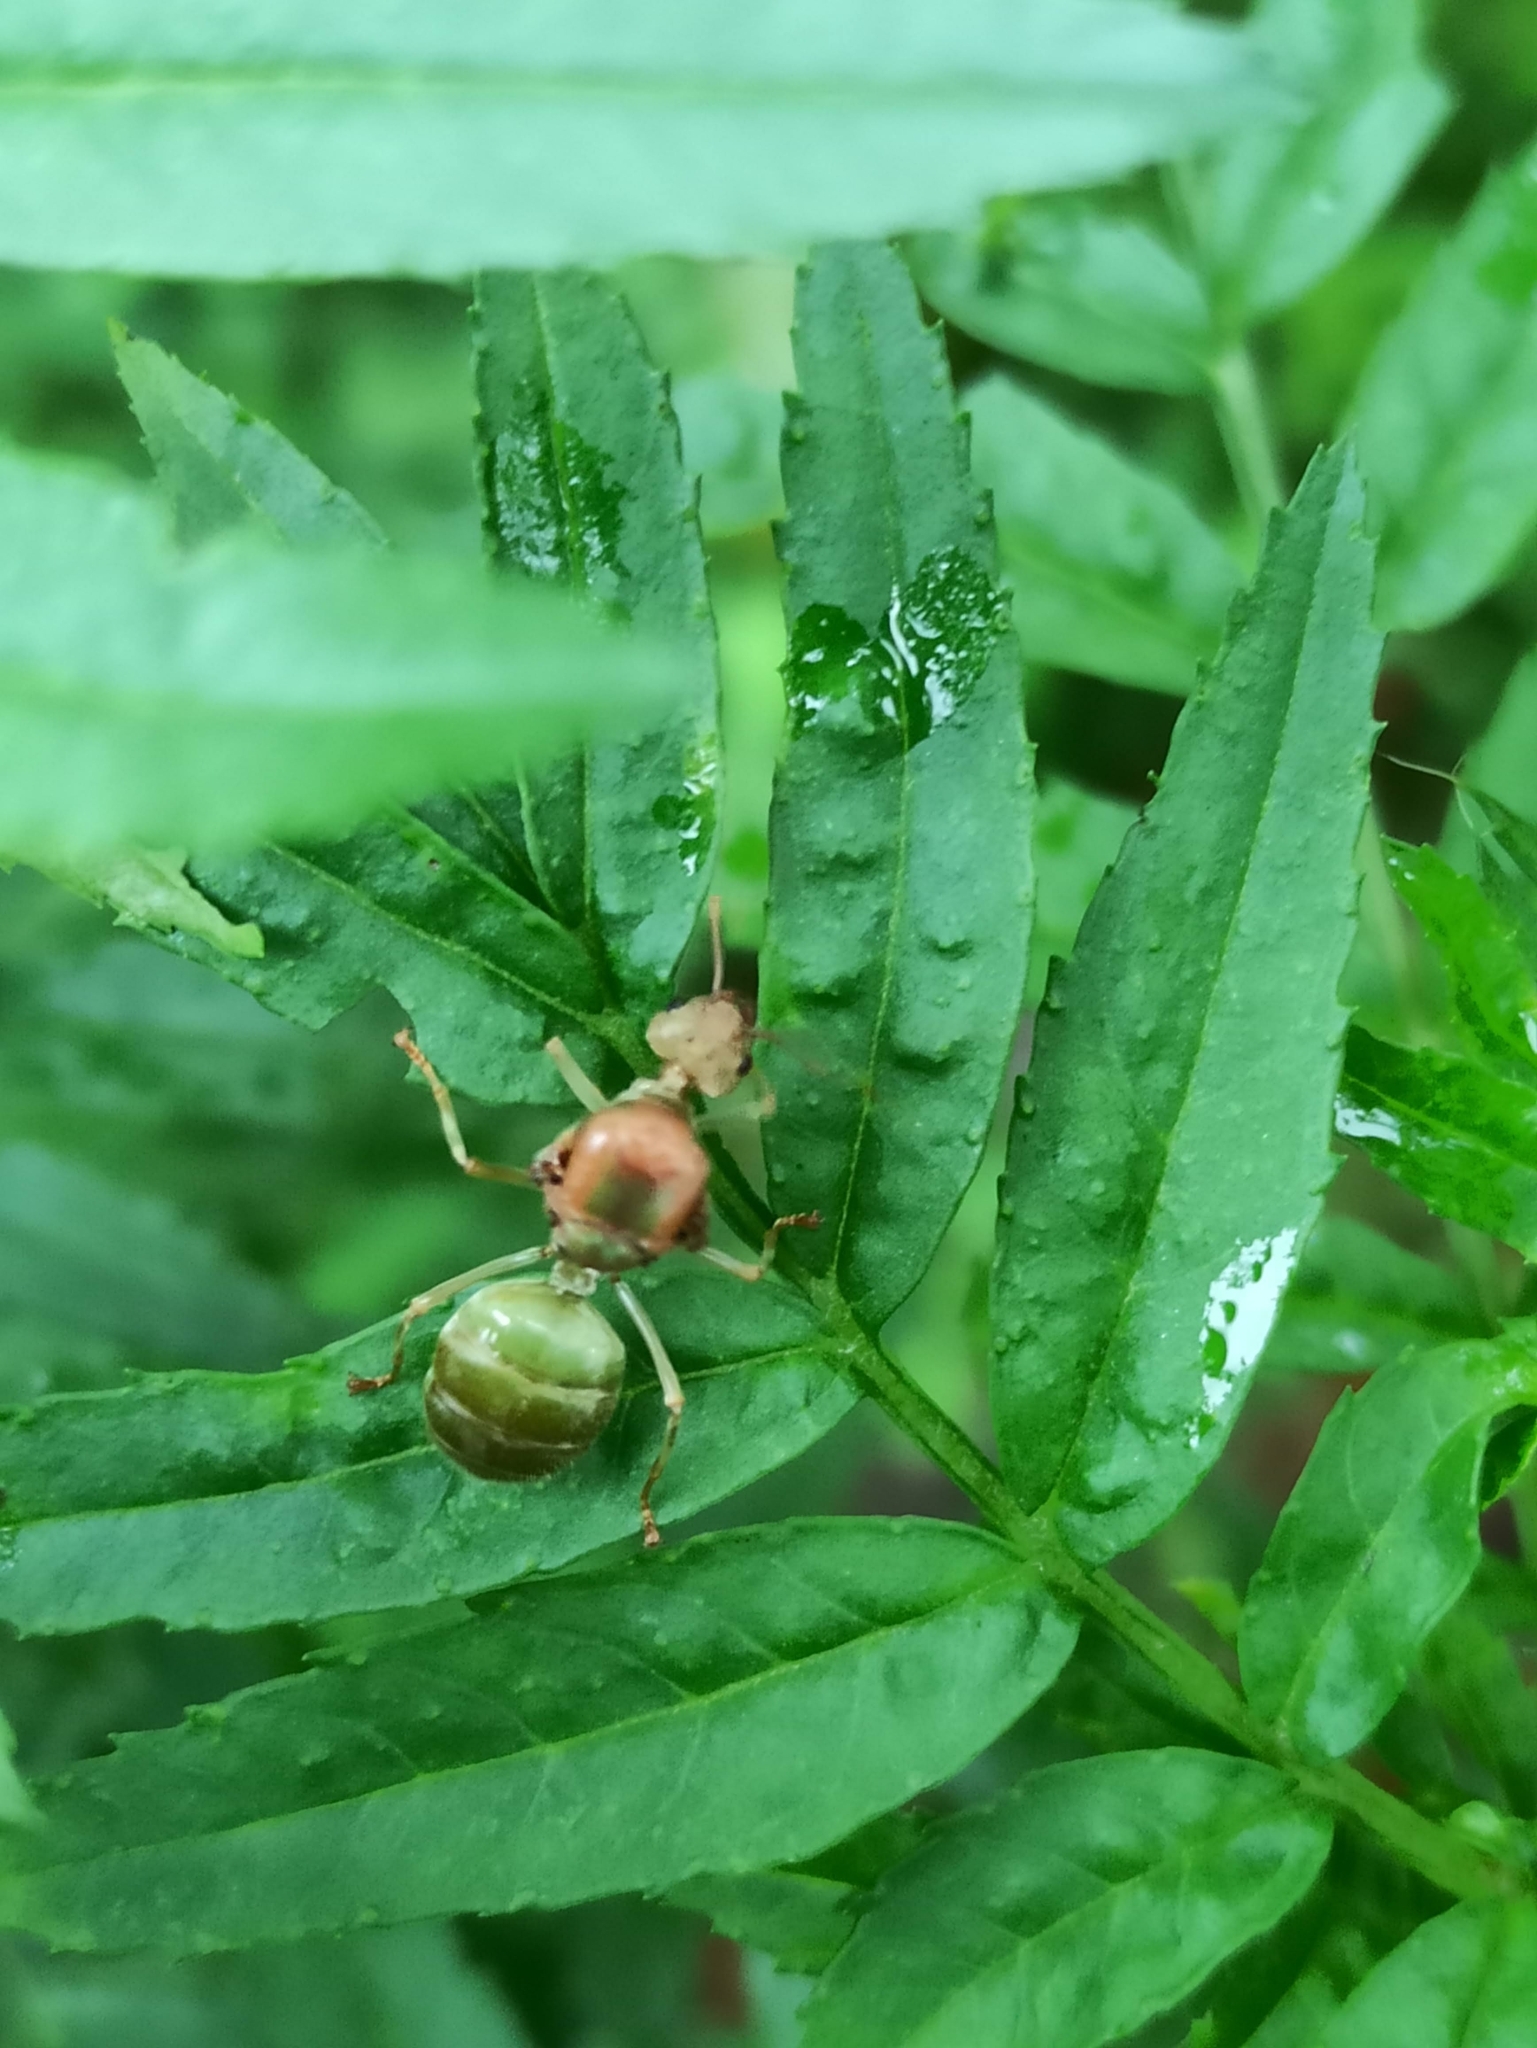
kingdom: Animalia
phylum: Arthropoda
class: Insecta
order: Hymenoptera
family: Formicidae
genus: Oecophylla
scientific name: Oecophylla smaragdina
